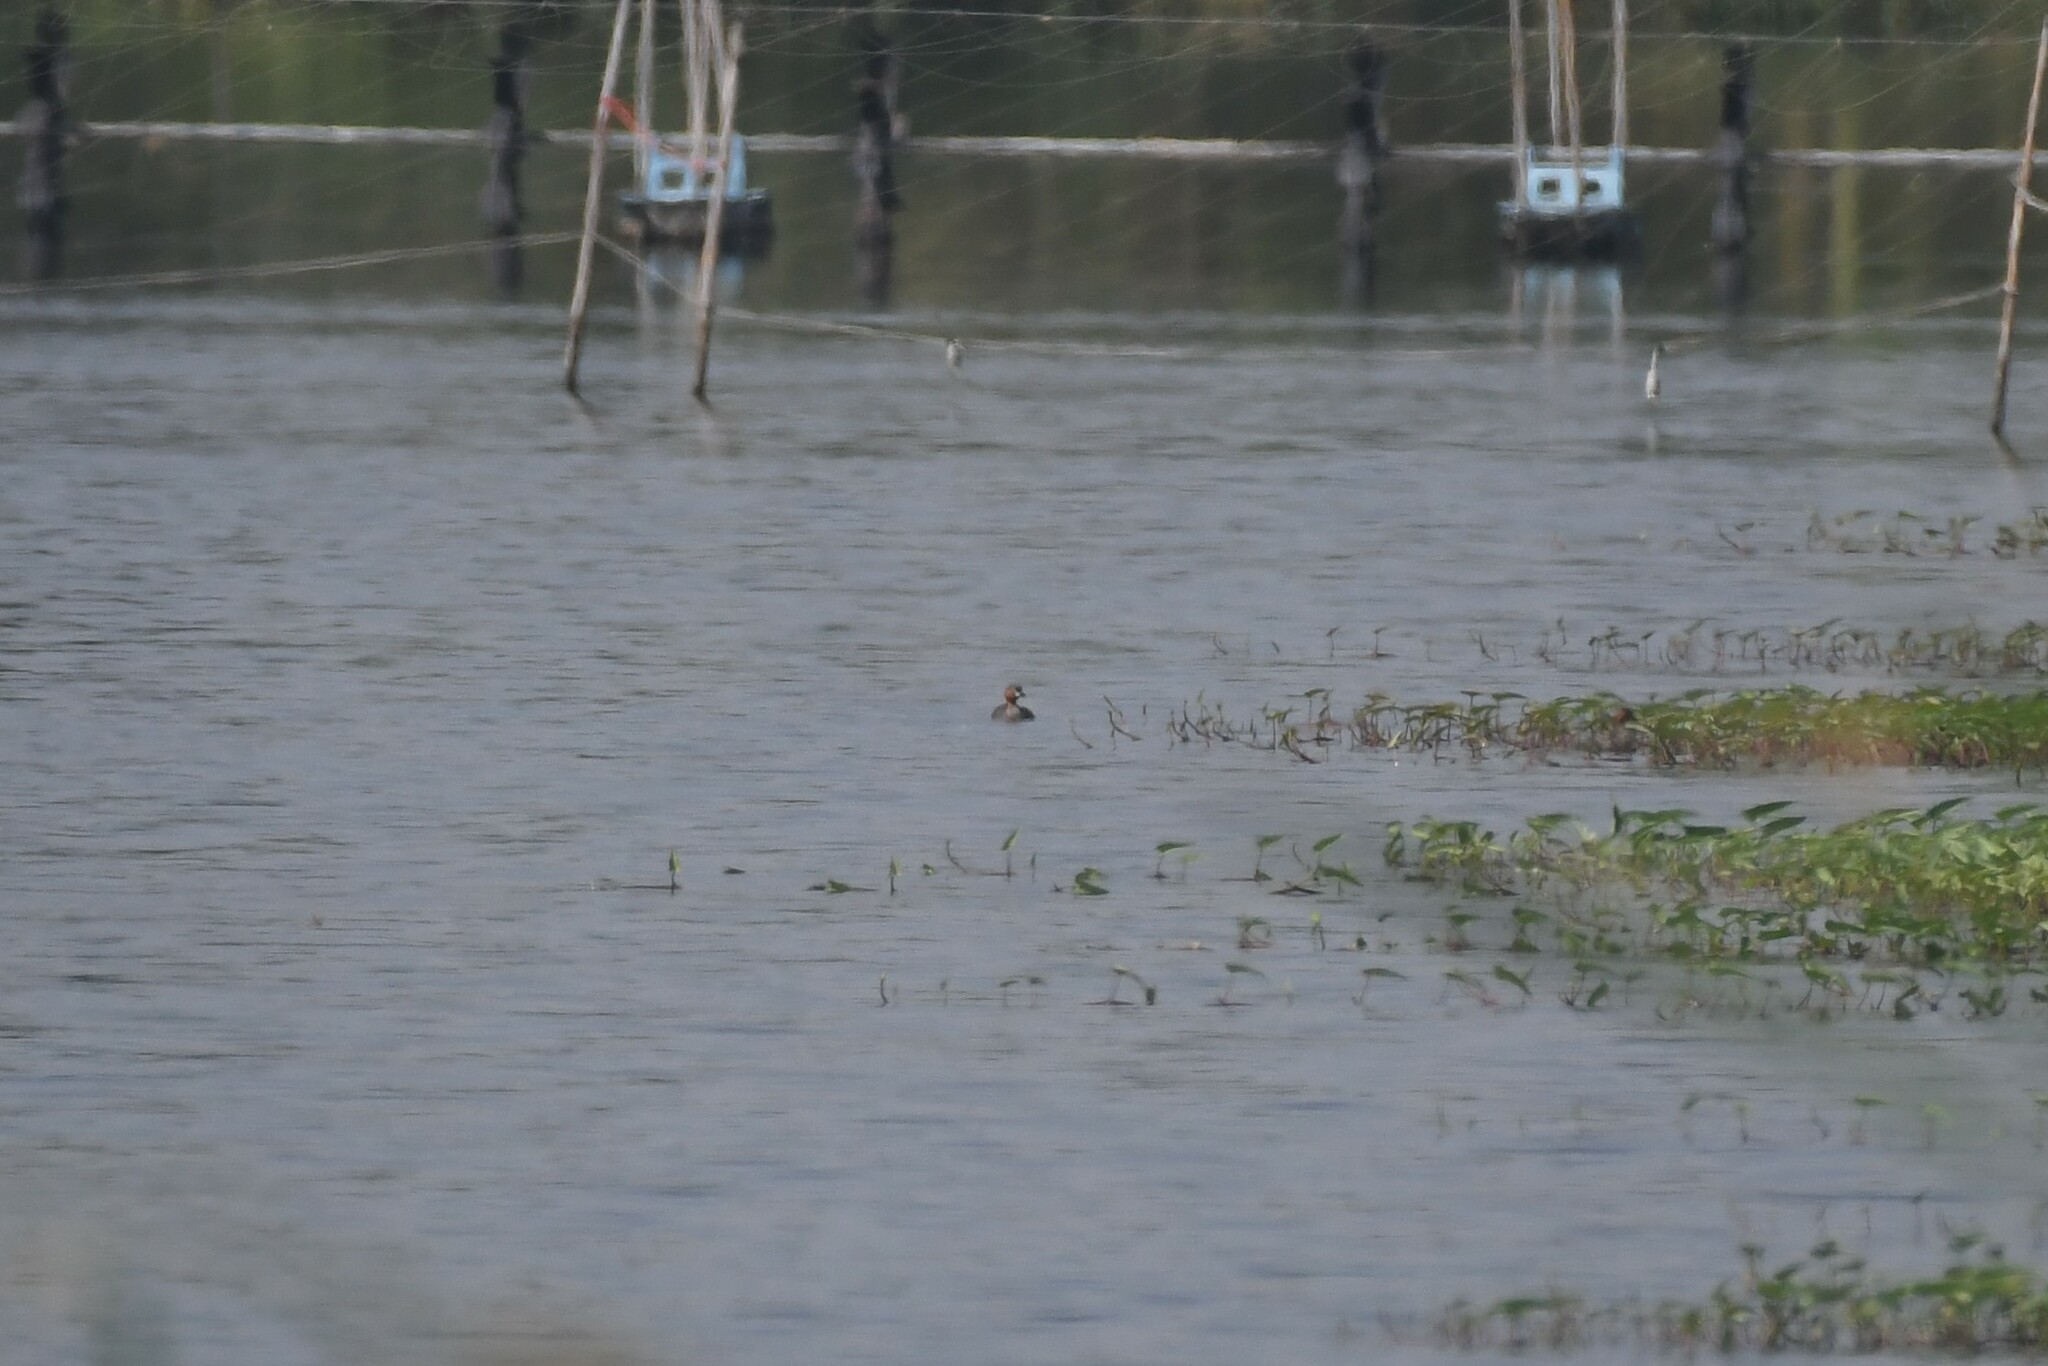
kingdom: Animalia
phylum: Chordata
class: Aves
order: Podicipediformes
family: Podicipedidae
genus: Tachybaptus
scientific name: Tachybaptus ruficollis
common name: Little grebe
